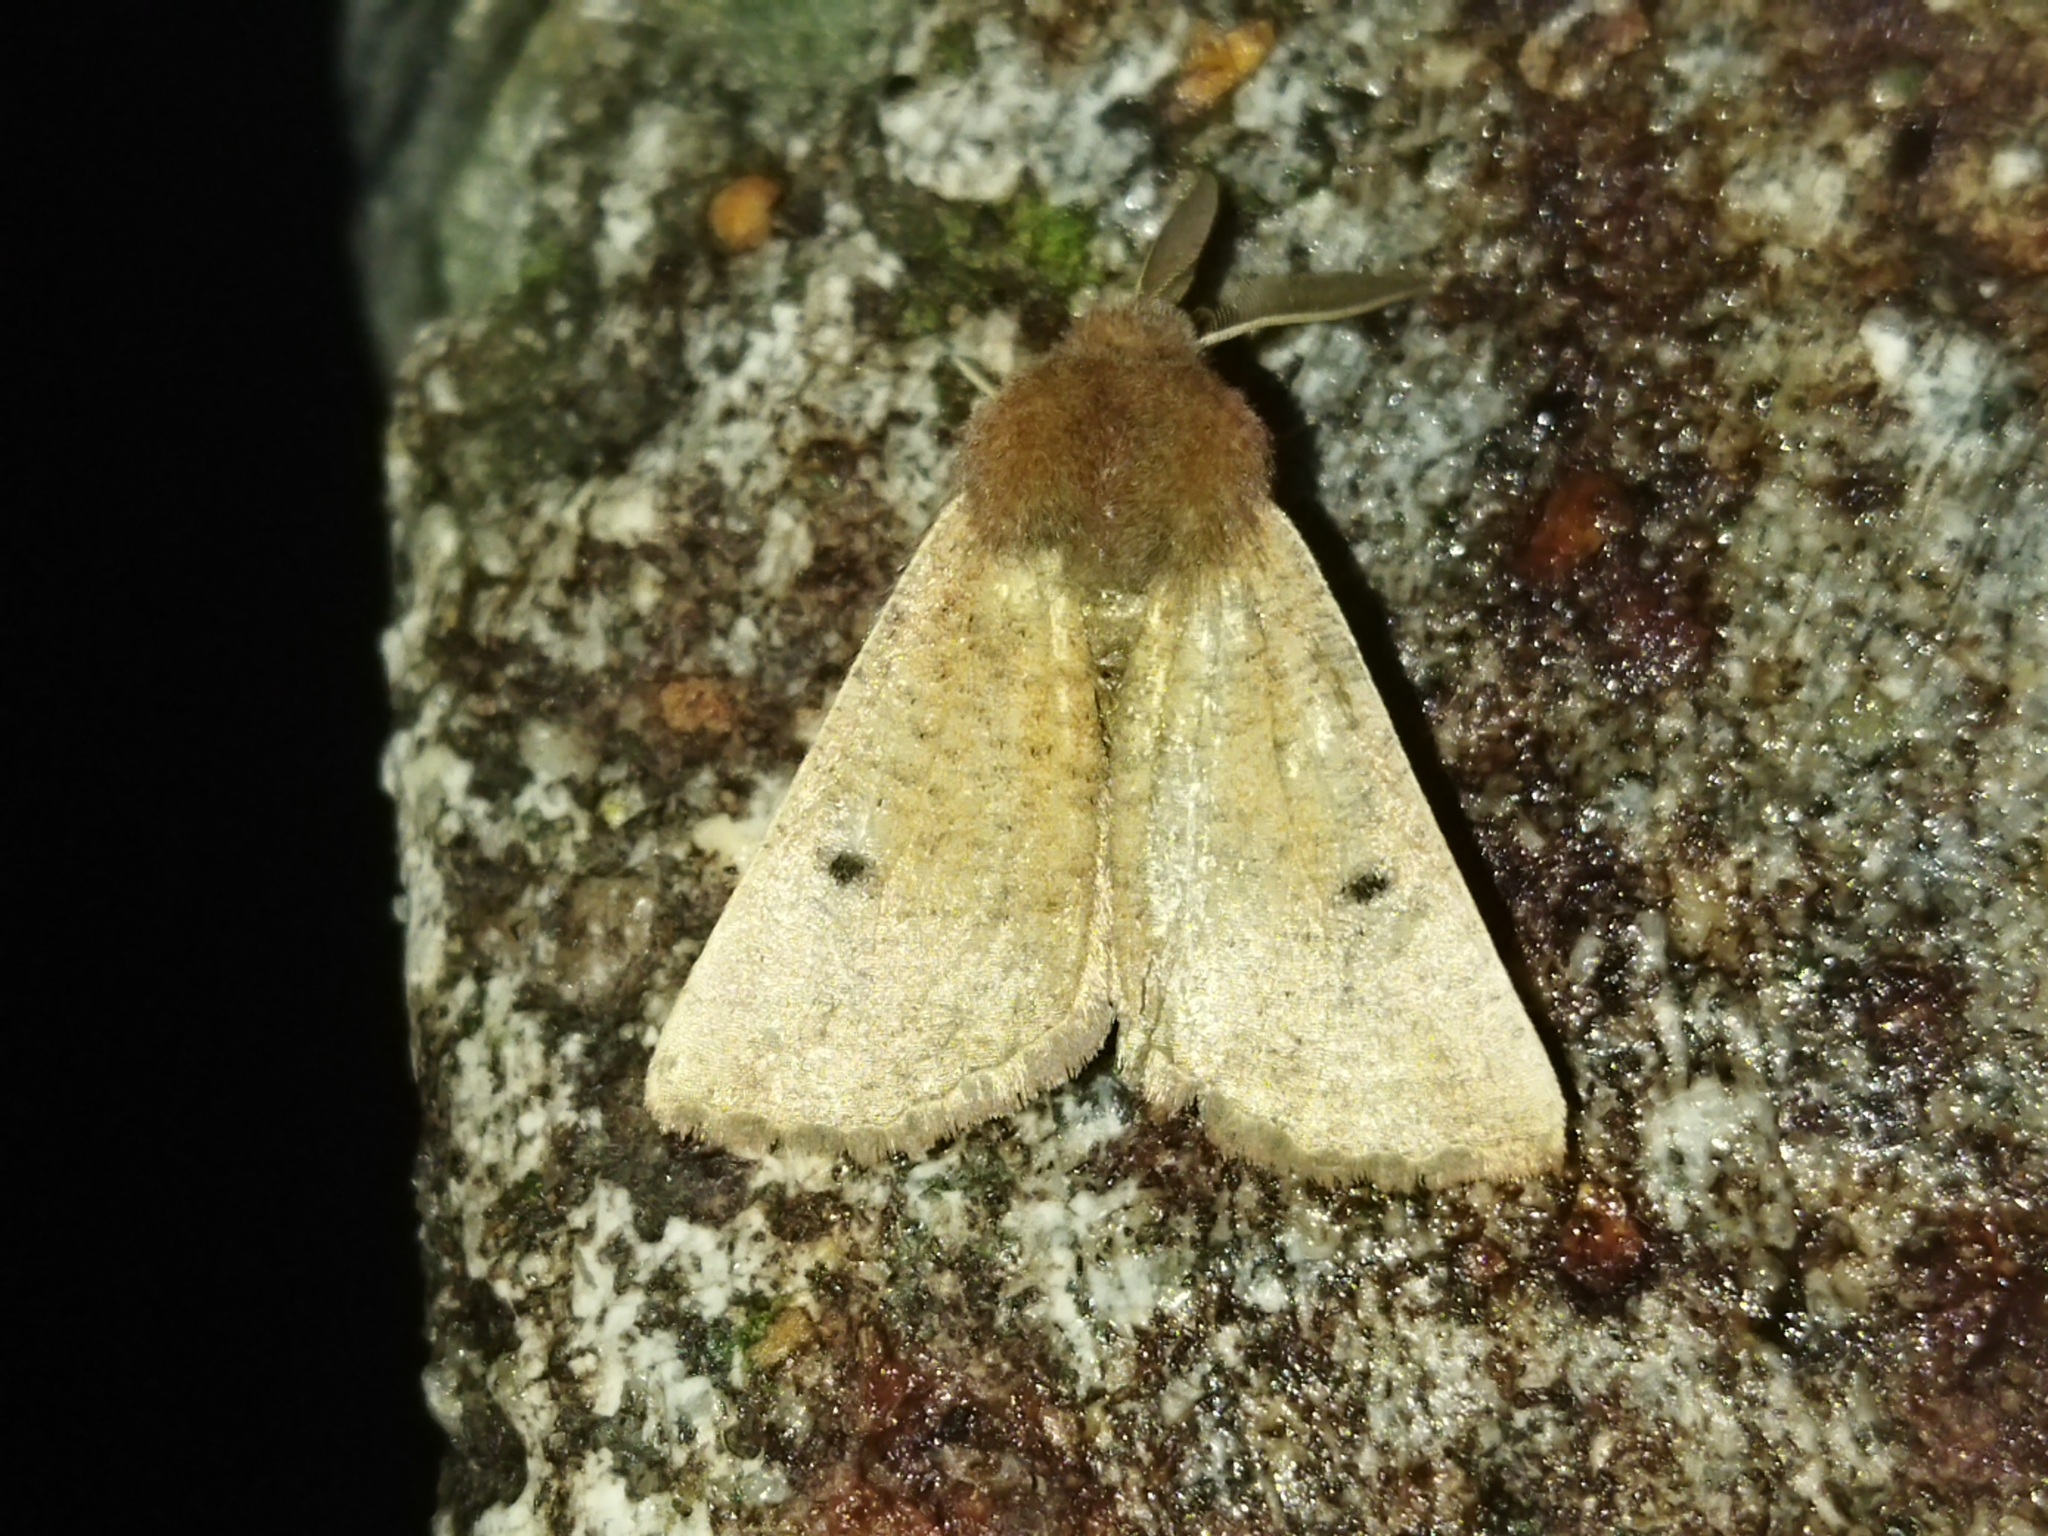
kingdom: Animalia
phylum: Arthropoda
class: Insecta
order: Lepidoptera
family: Geometridae
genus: Dasycorsa
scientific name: Dasycorsa modesta
